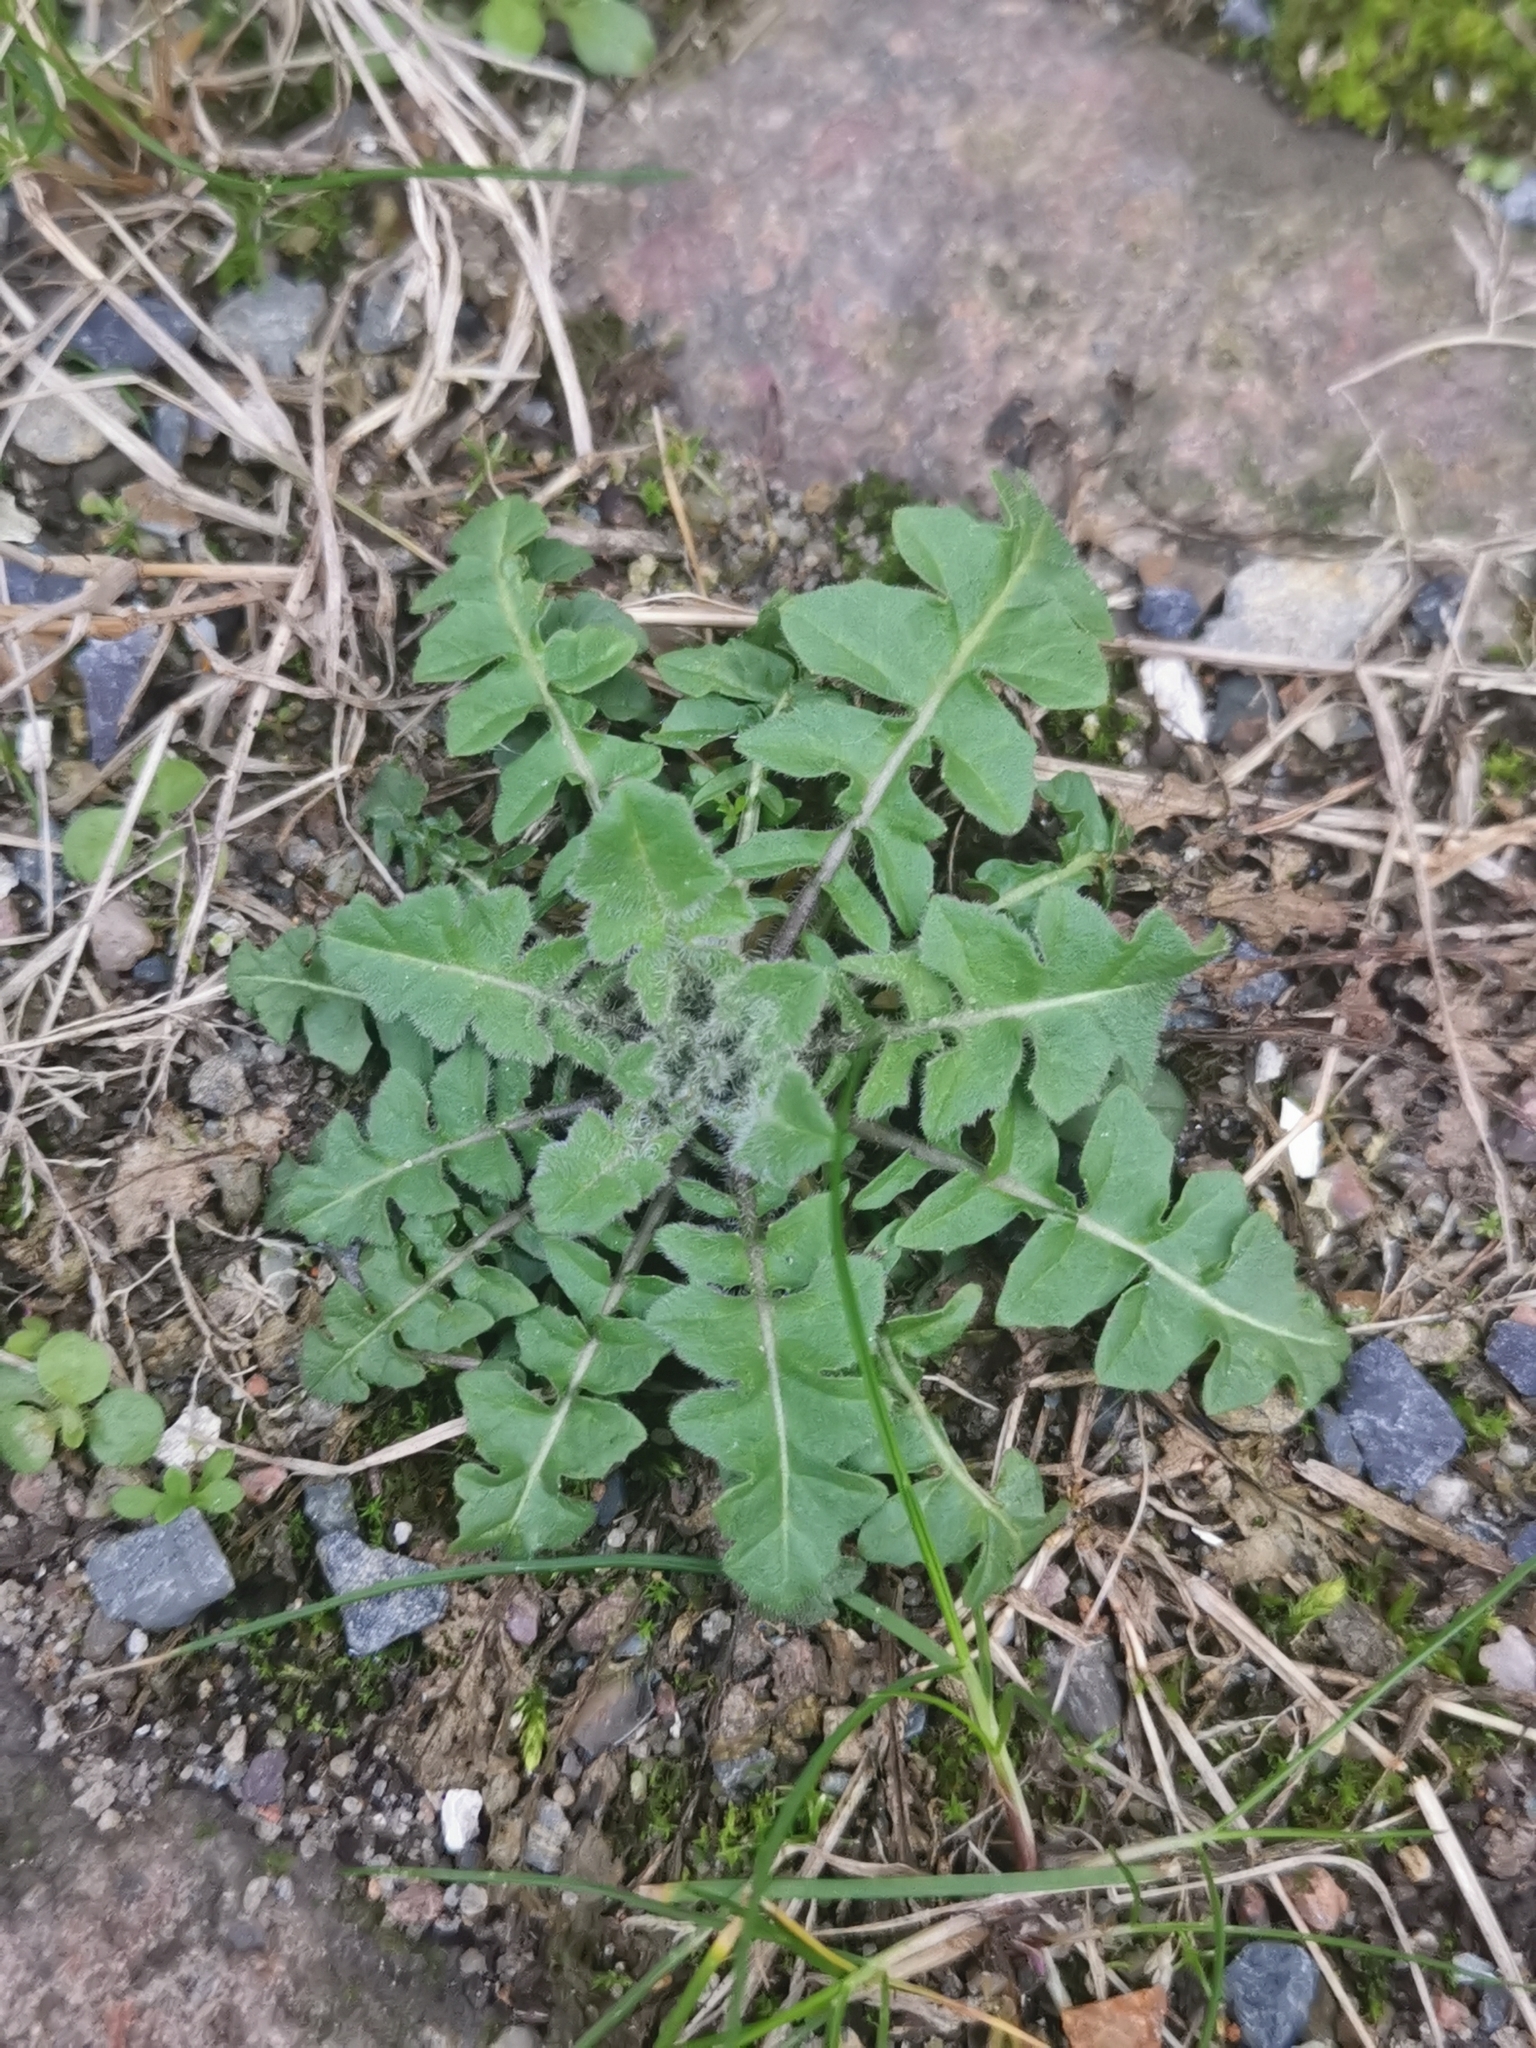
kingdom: Plantae
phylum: Tracheophyta
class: Magnoliopsida
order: Brassicales
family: Brassicaceae
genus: Sisymbrium
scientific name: Sisymbrium loeselii
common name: False london-rocket
